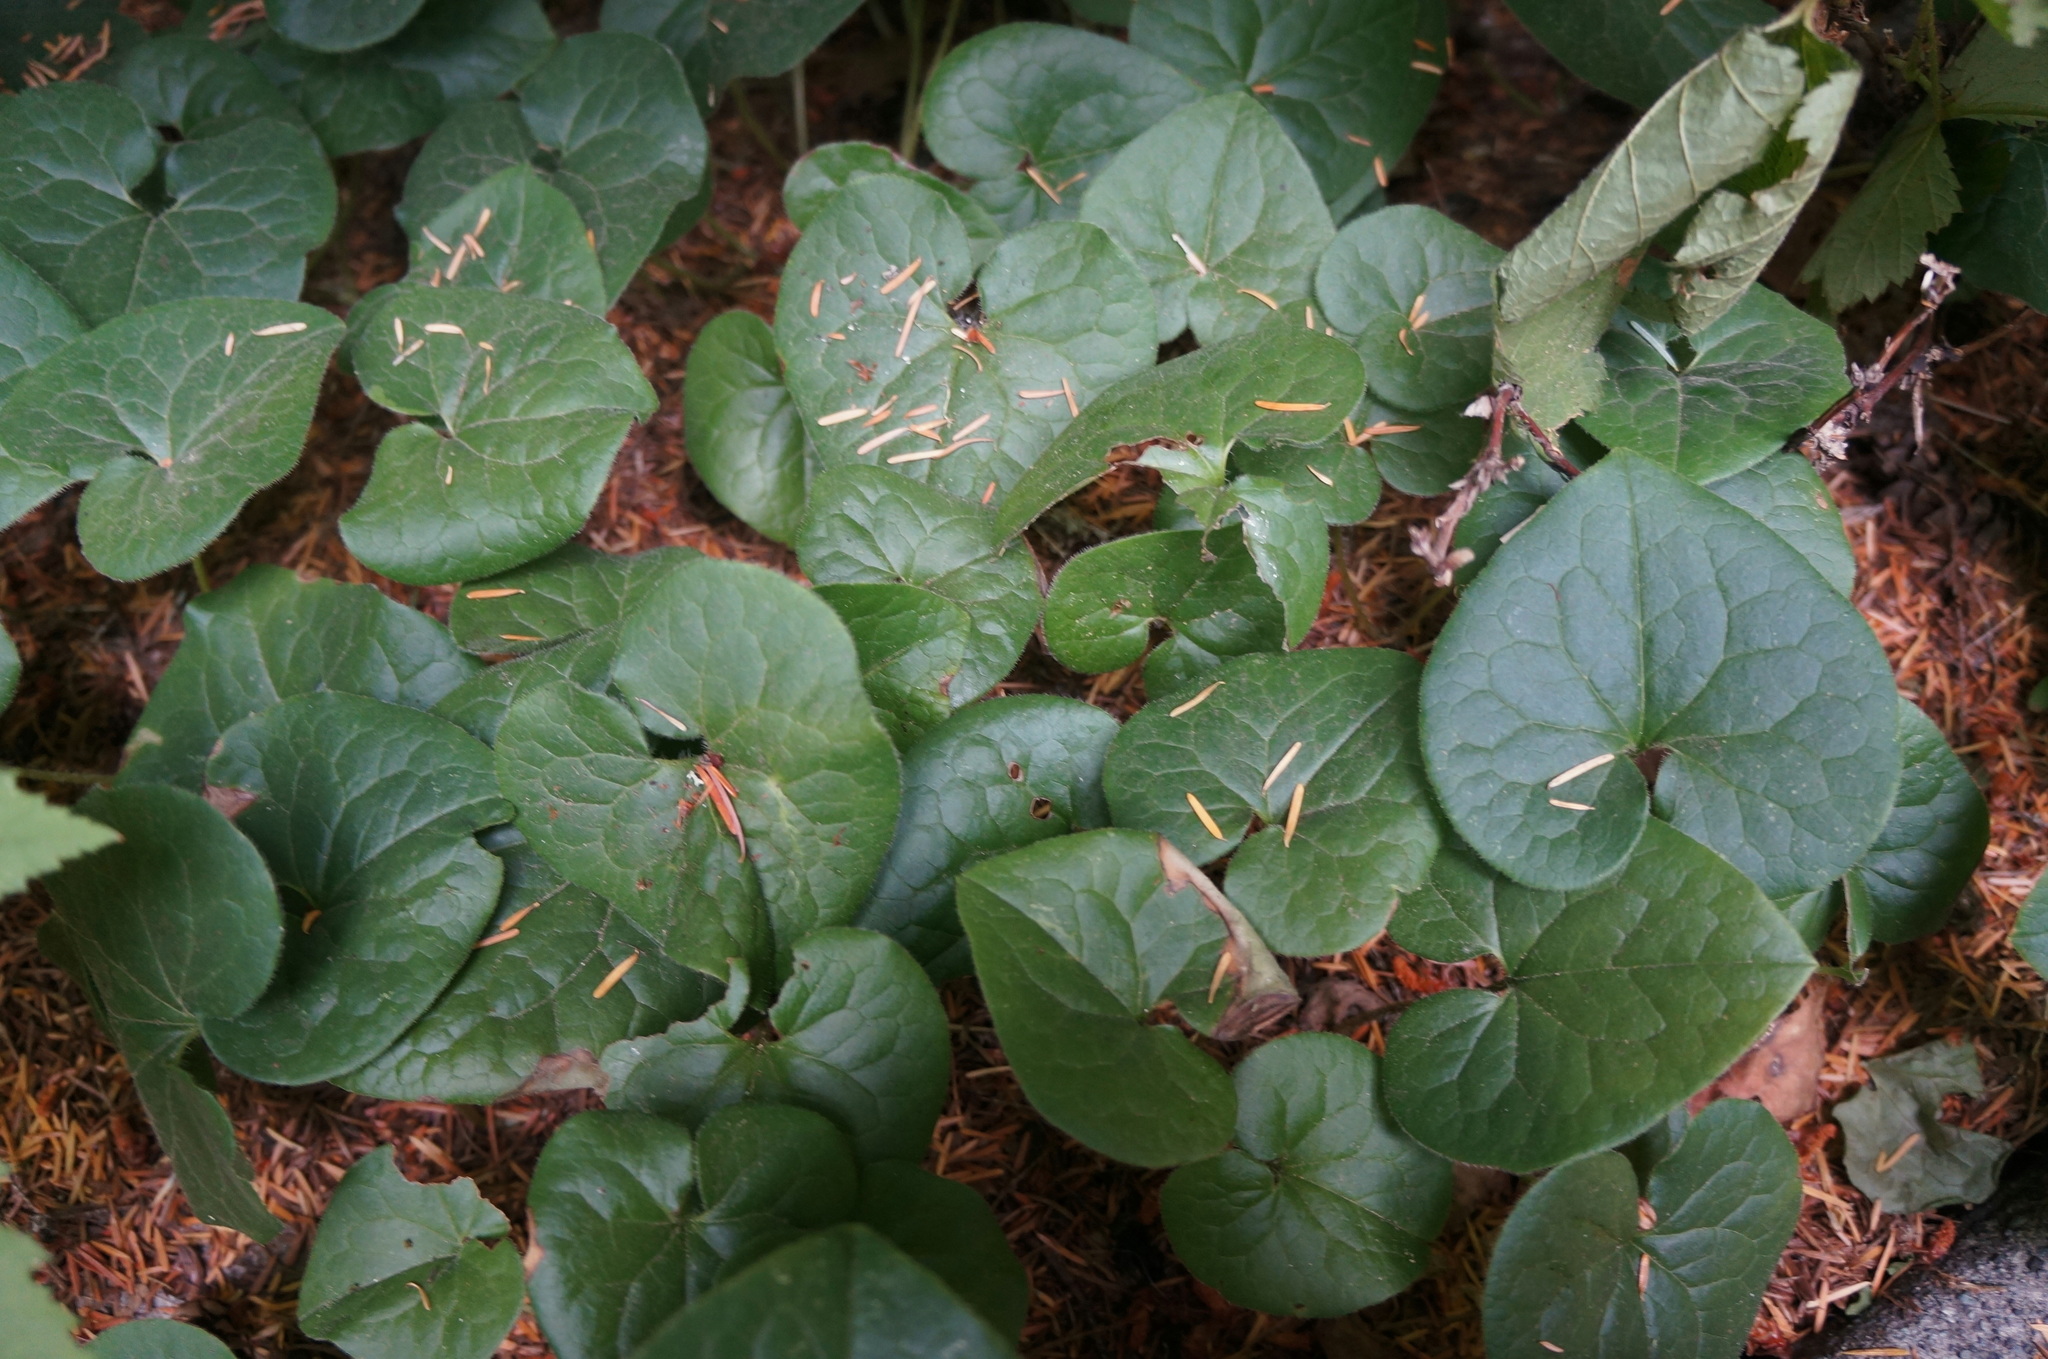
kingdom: Plantae
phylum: Tracheophyta
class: Magnoliopsida
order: Piperales
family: Aristolochiaceae
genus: Asarum
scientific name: Asarum caudatum
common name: Wild ginger
